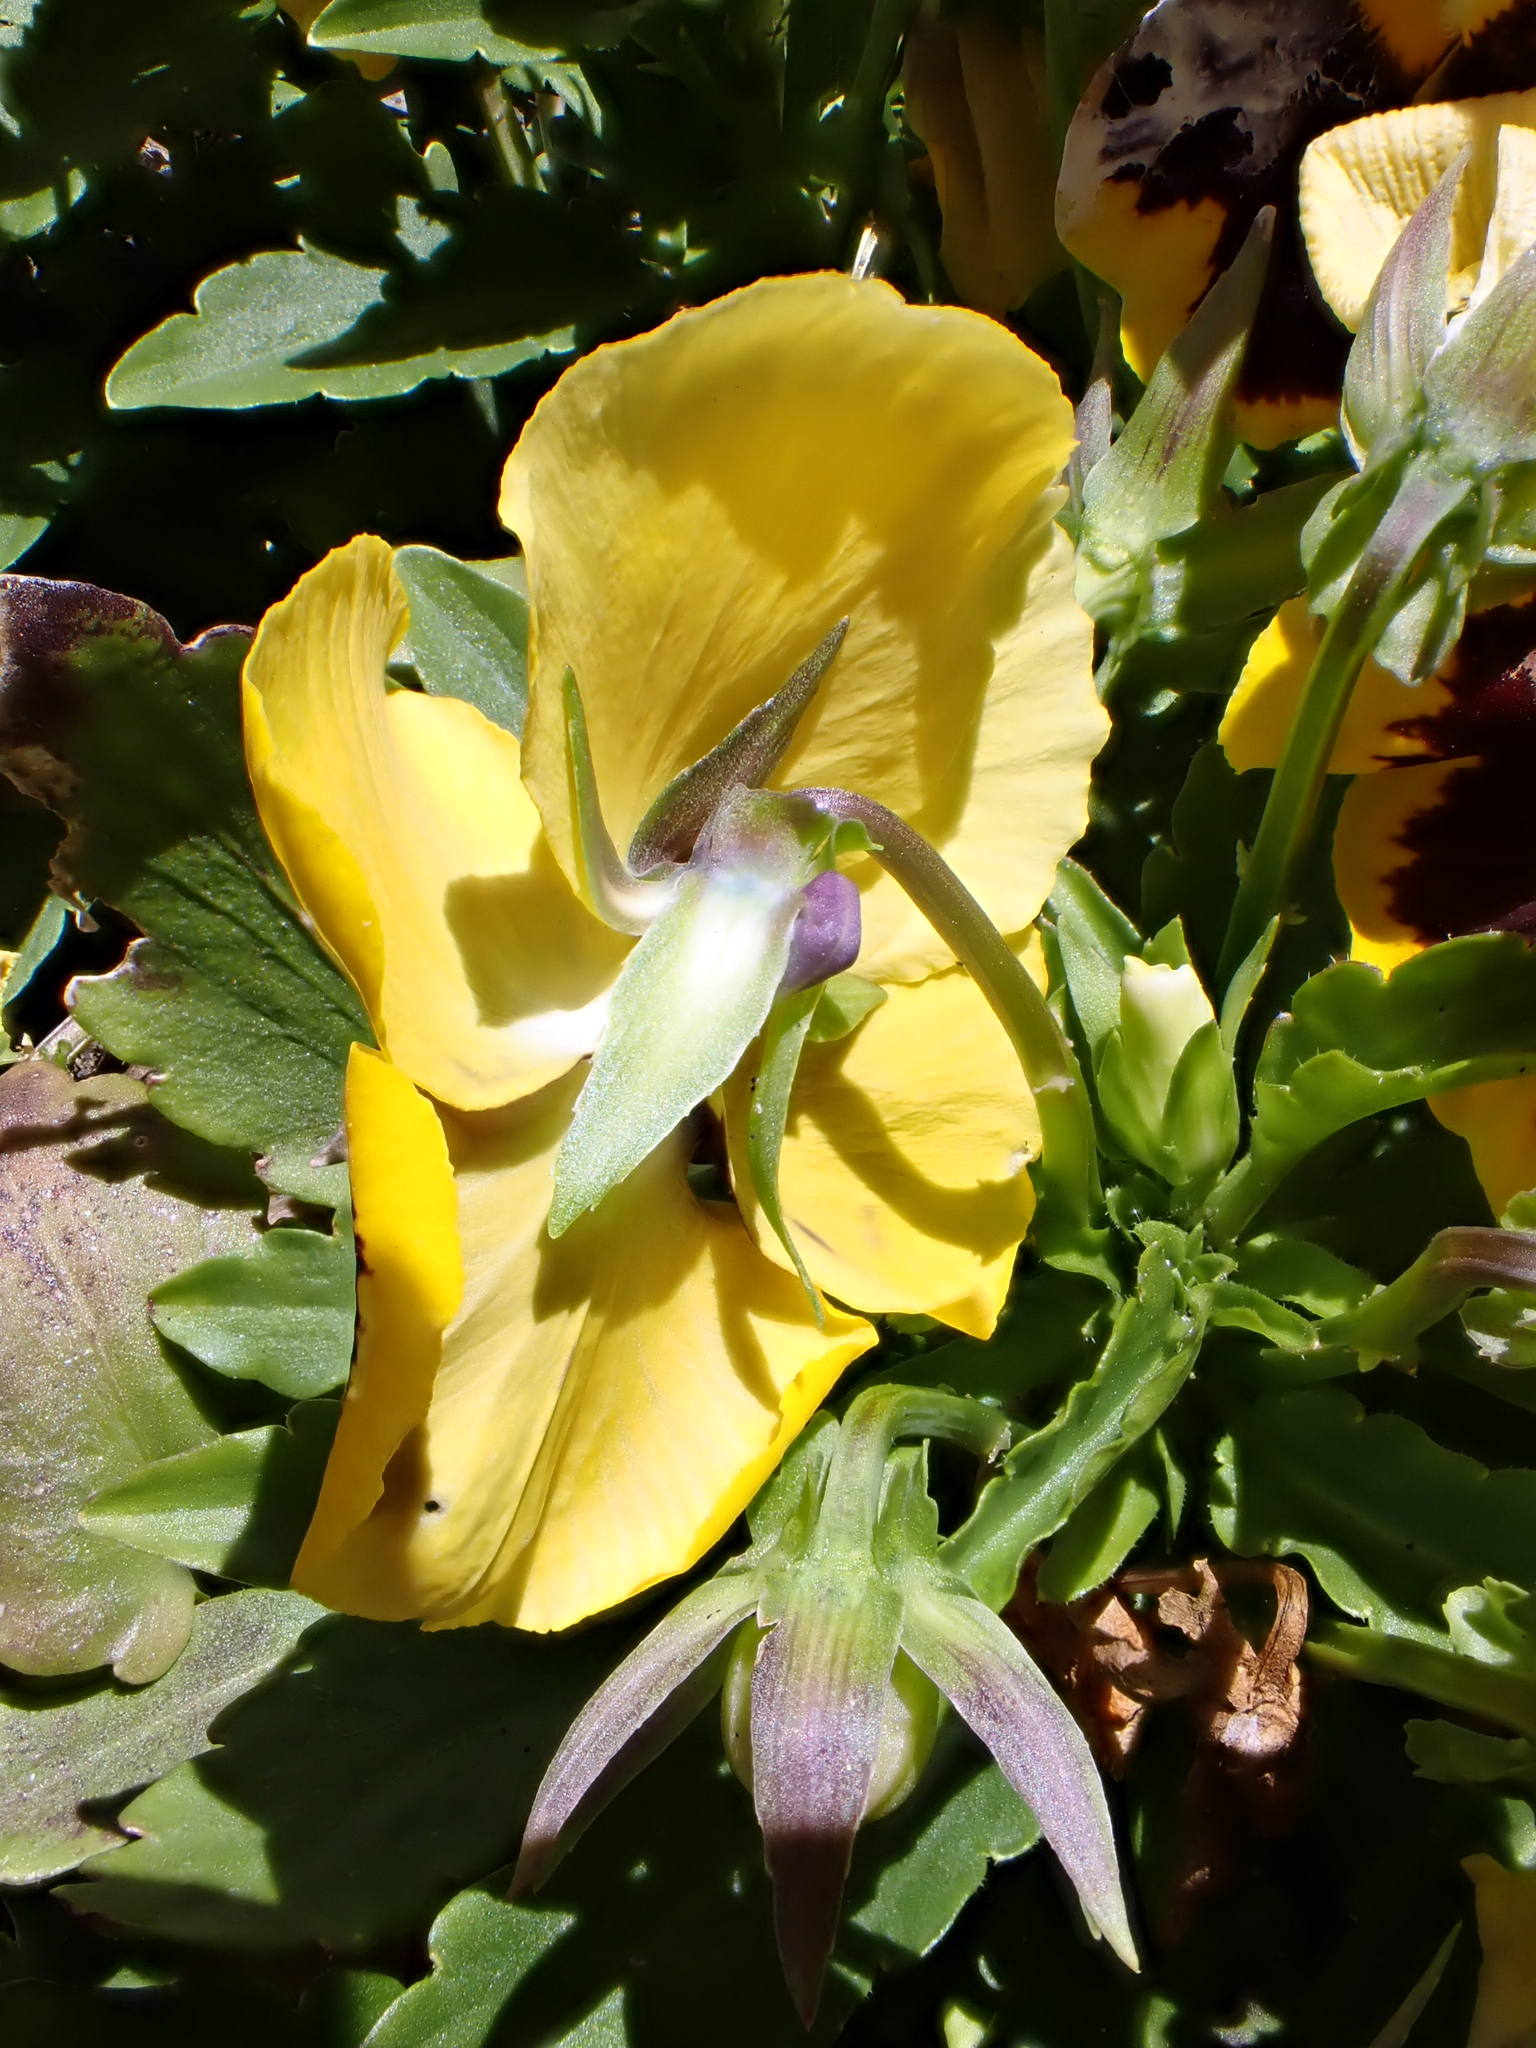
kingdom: Plantae
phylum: Tracheophyta
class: Magnoliopsida
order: Malpighiales
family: Violaceae
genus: Viola
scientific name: Viola wittrockiana
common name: Garden pansy
